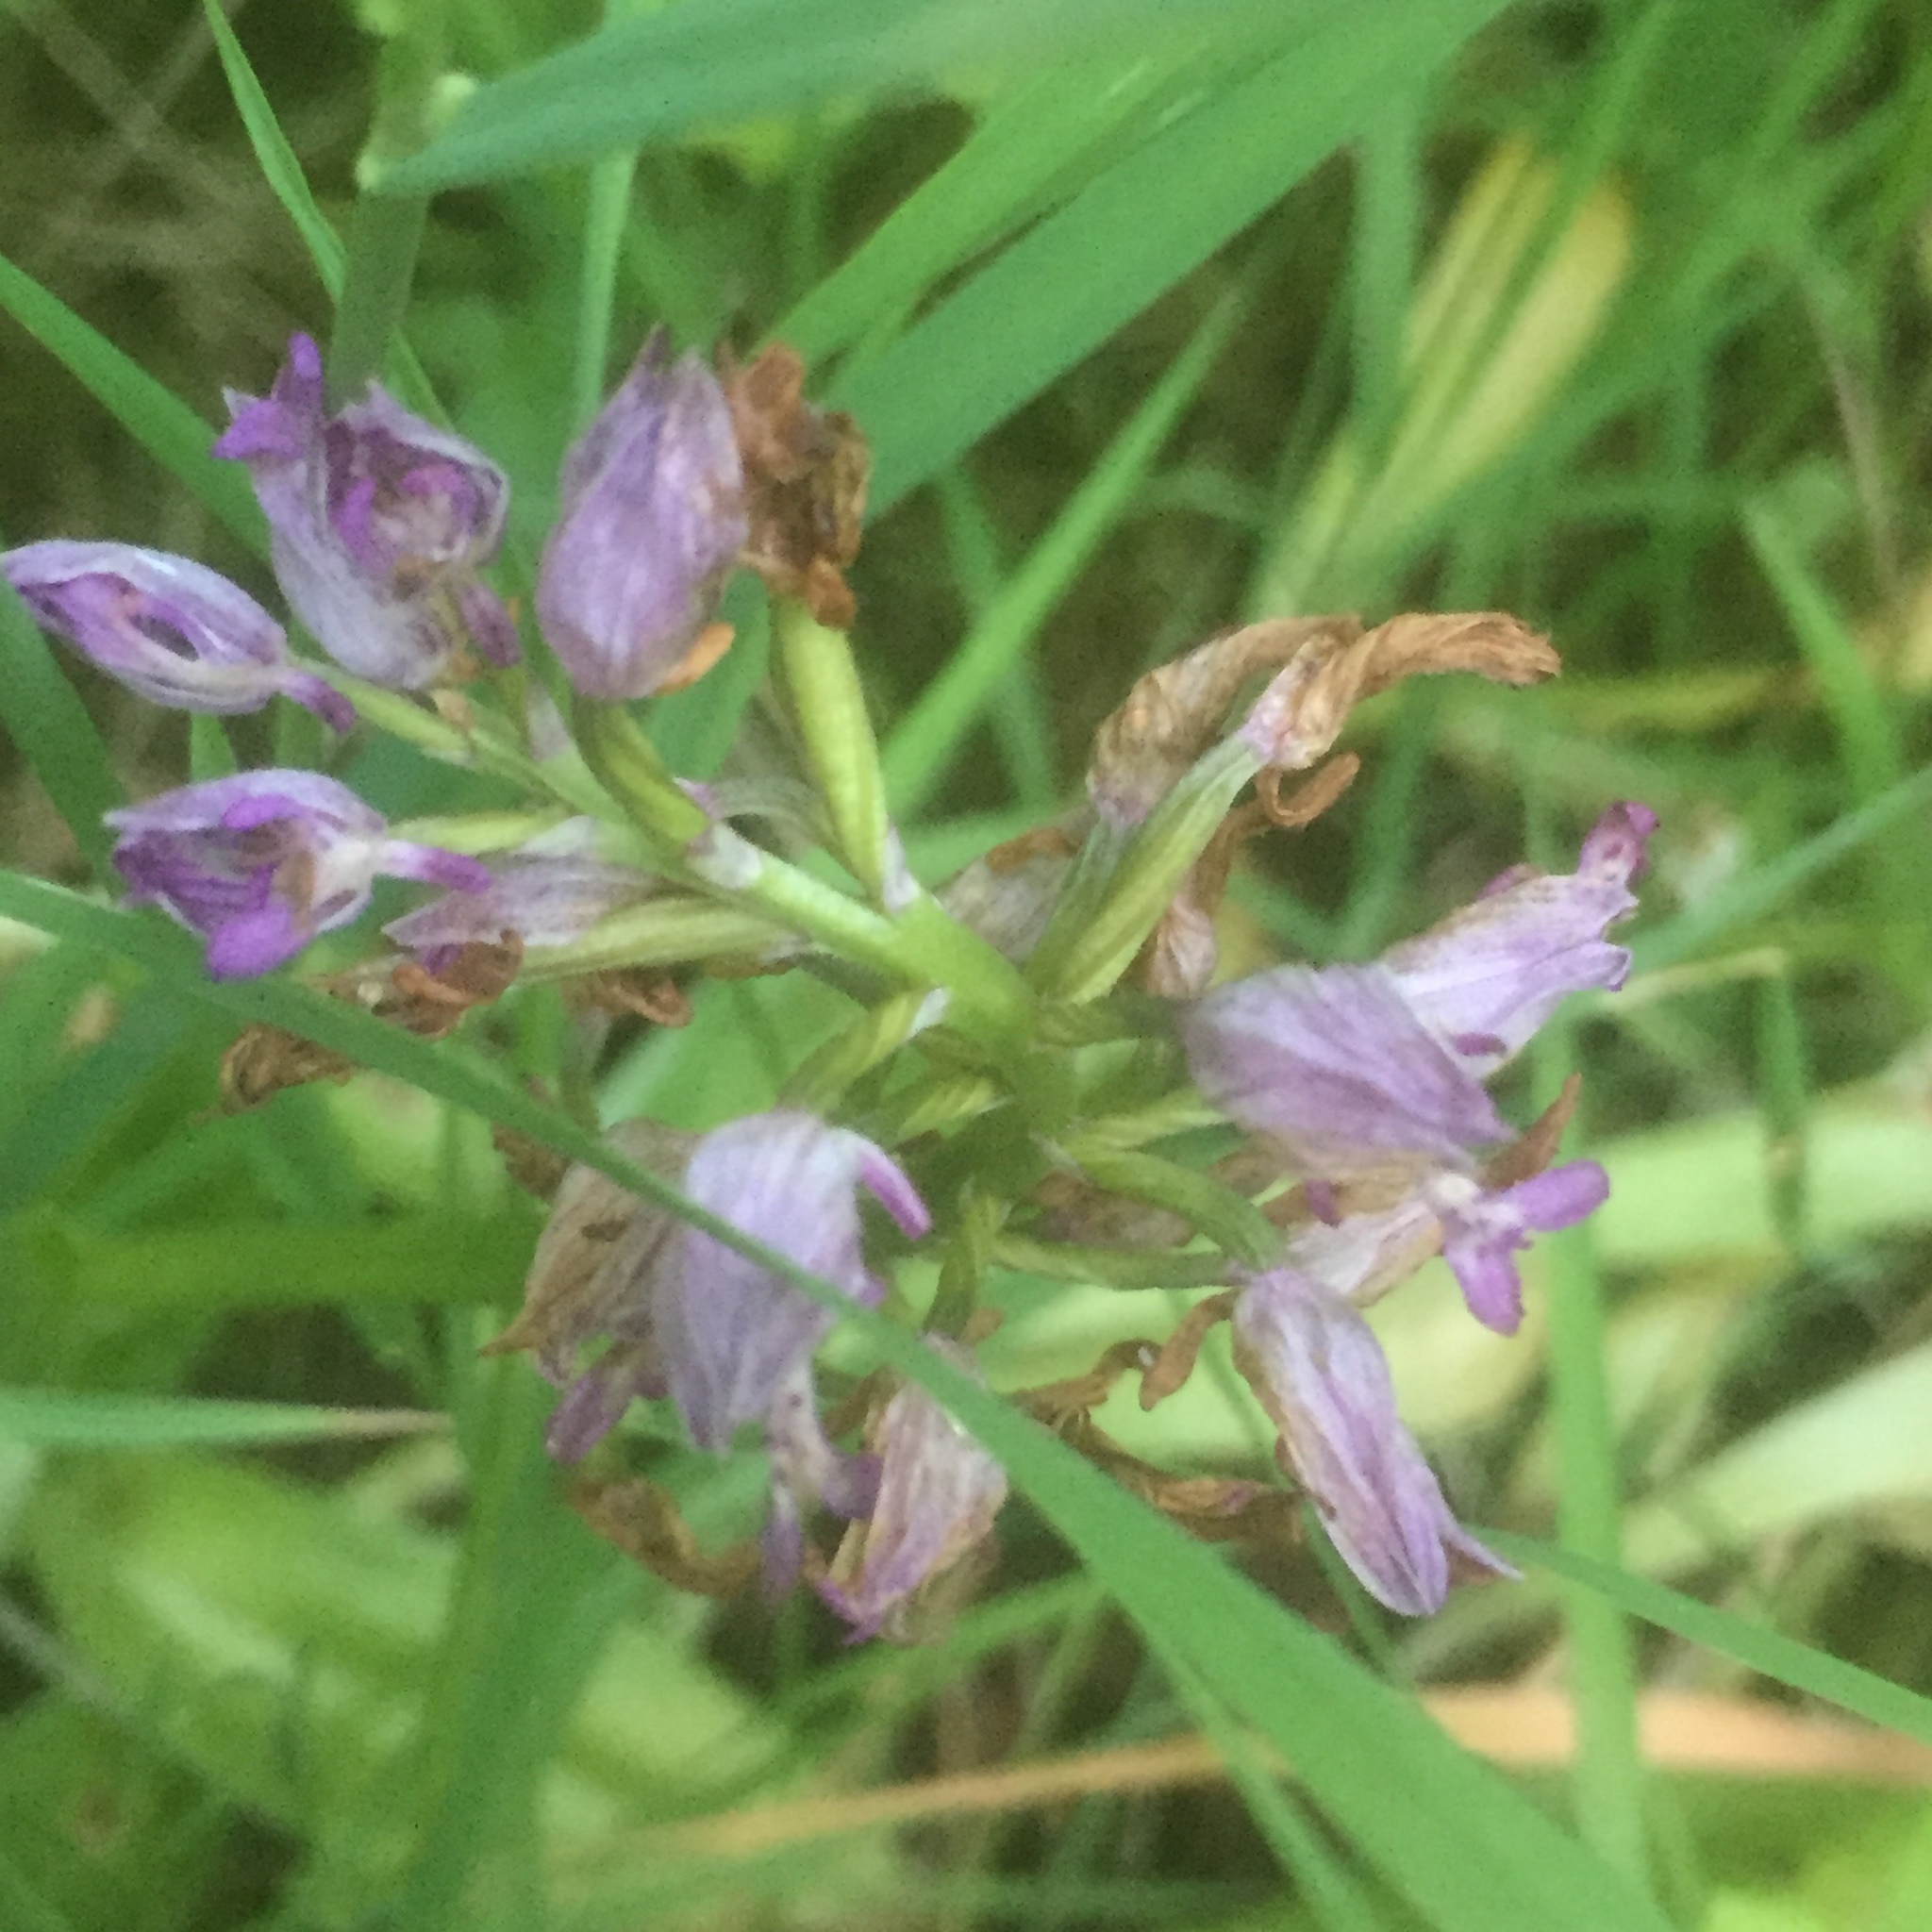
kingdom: Plantae
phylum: Tracheophyta
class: Liliopsida
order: Asparagales
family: Orchidaceae
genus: Orchis
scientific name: Orchis militaris
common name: Military orchid
